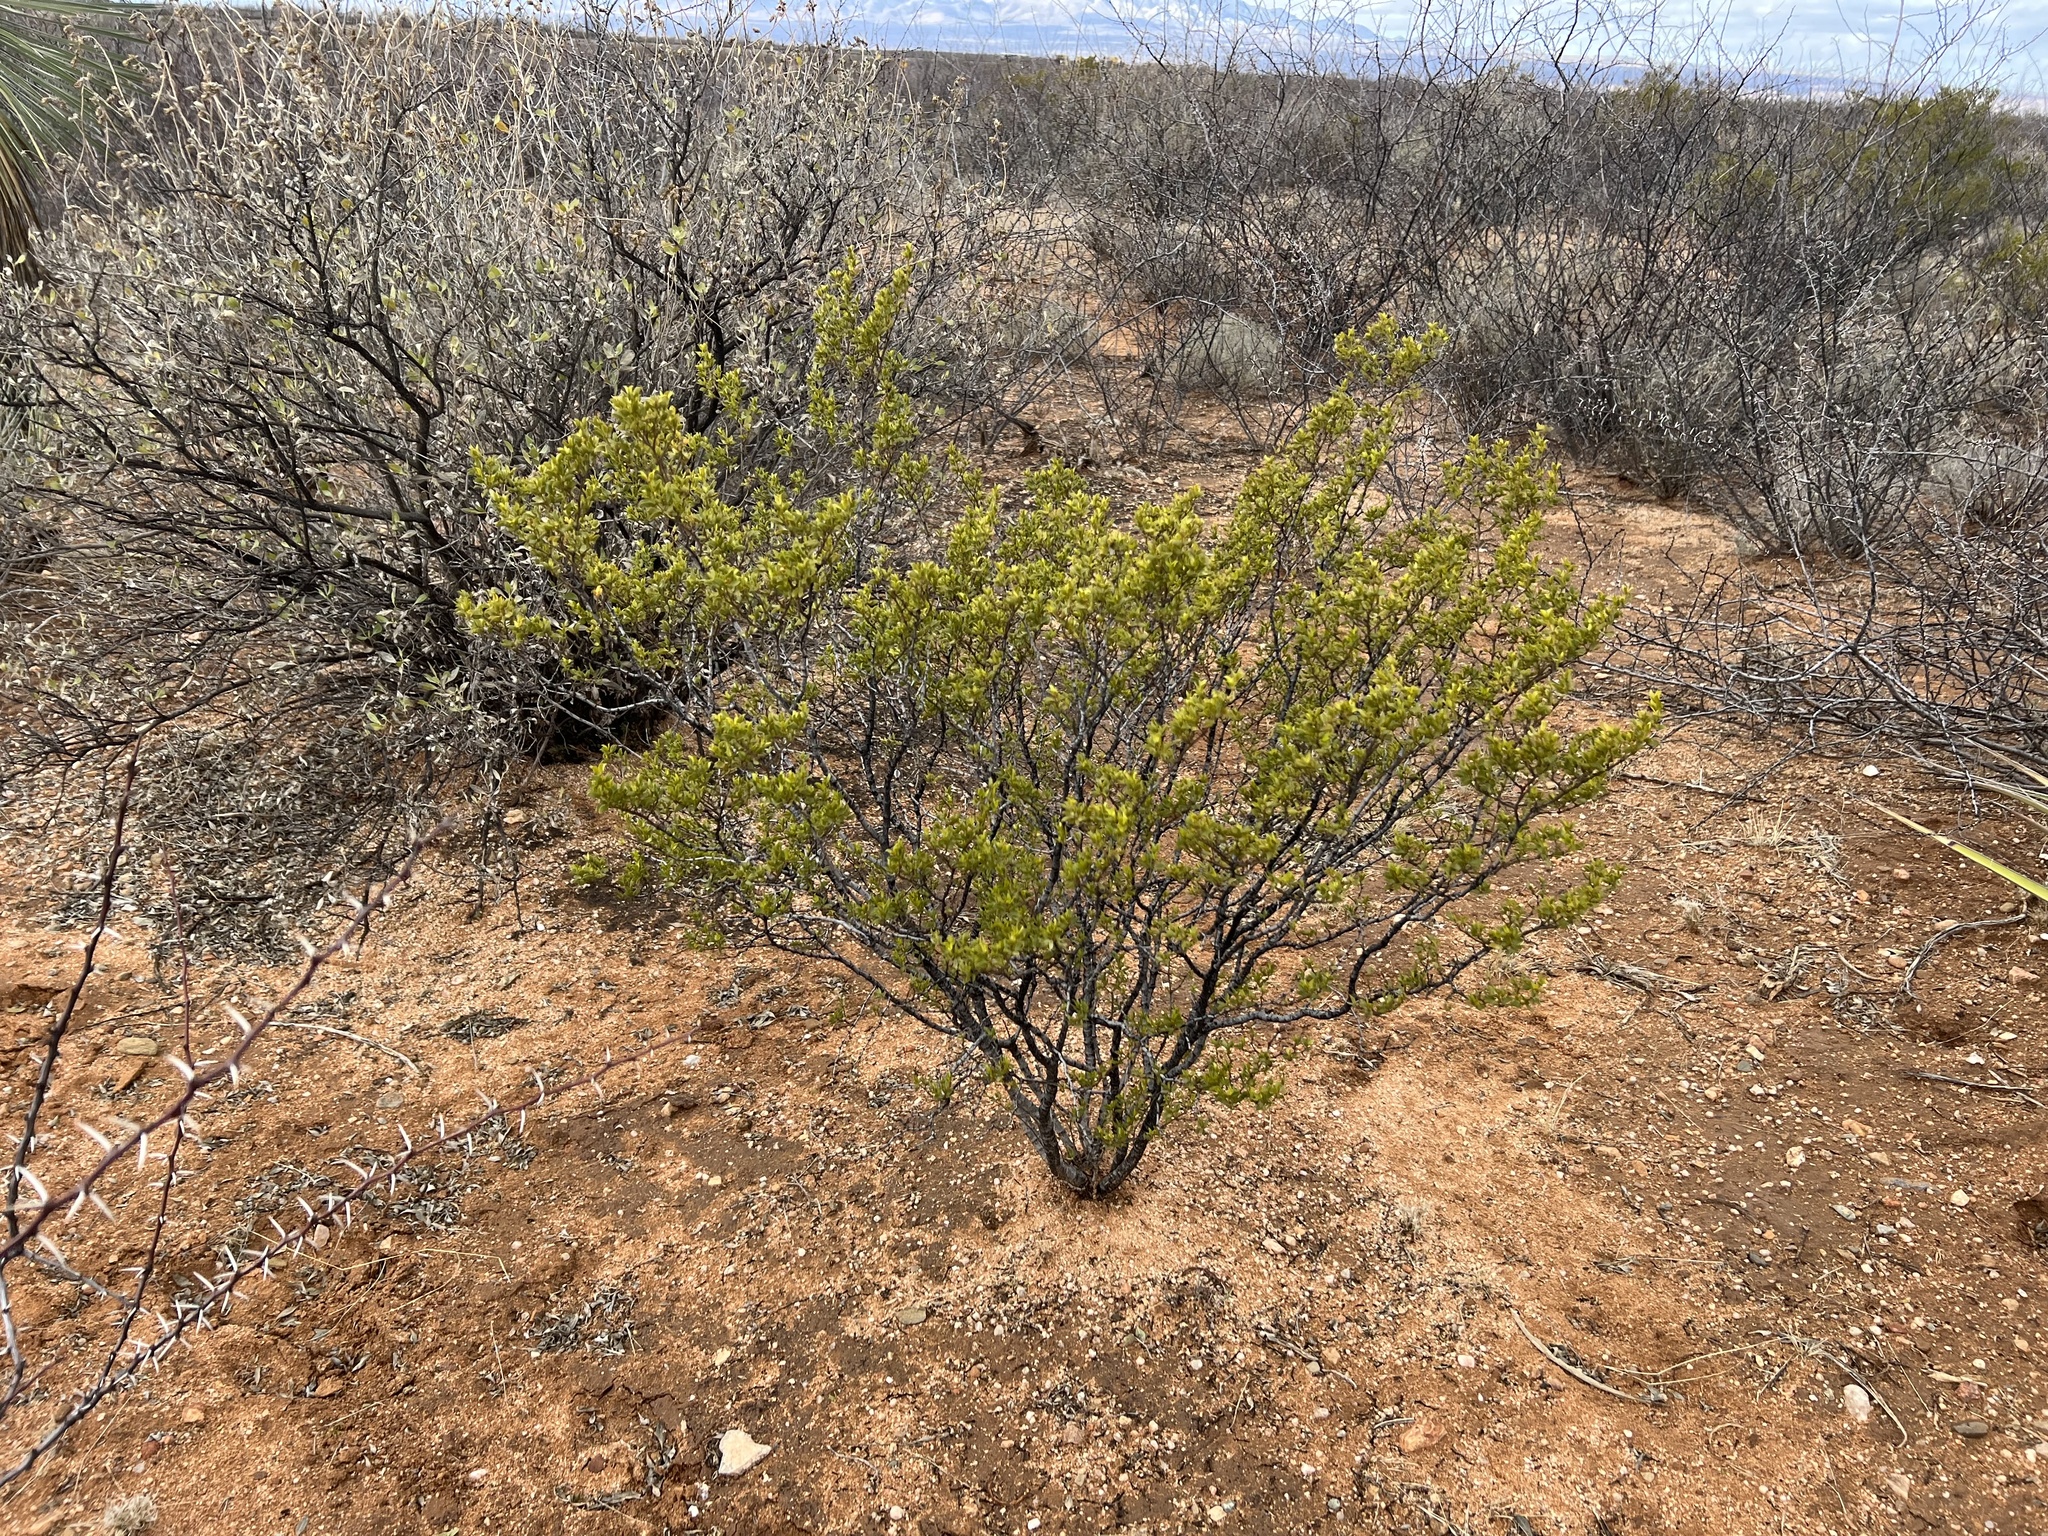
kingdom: Plantae
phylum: Tracheophyta
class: Magnoliopsida
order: Zygophyllales
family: Zygophyllaceae
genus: Larrea
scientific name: Larrea tridentata
